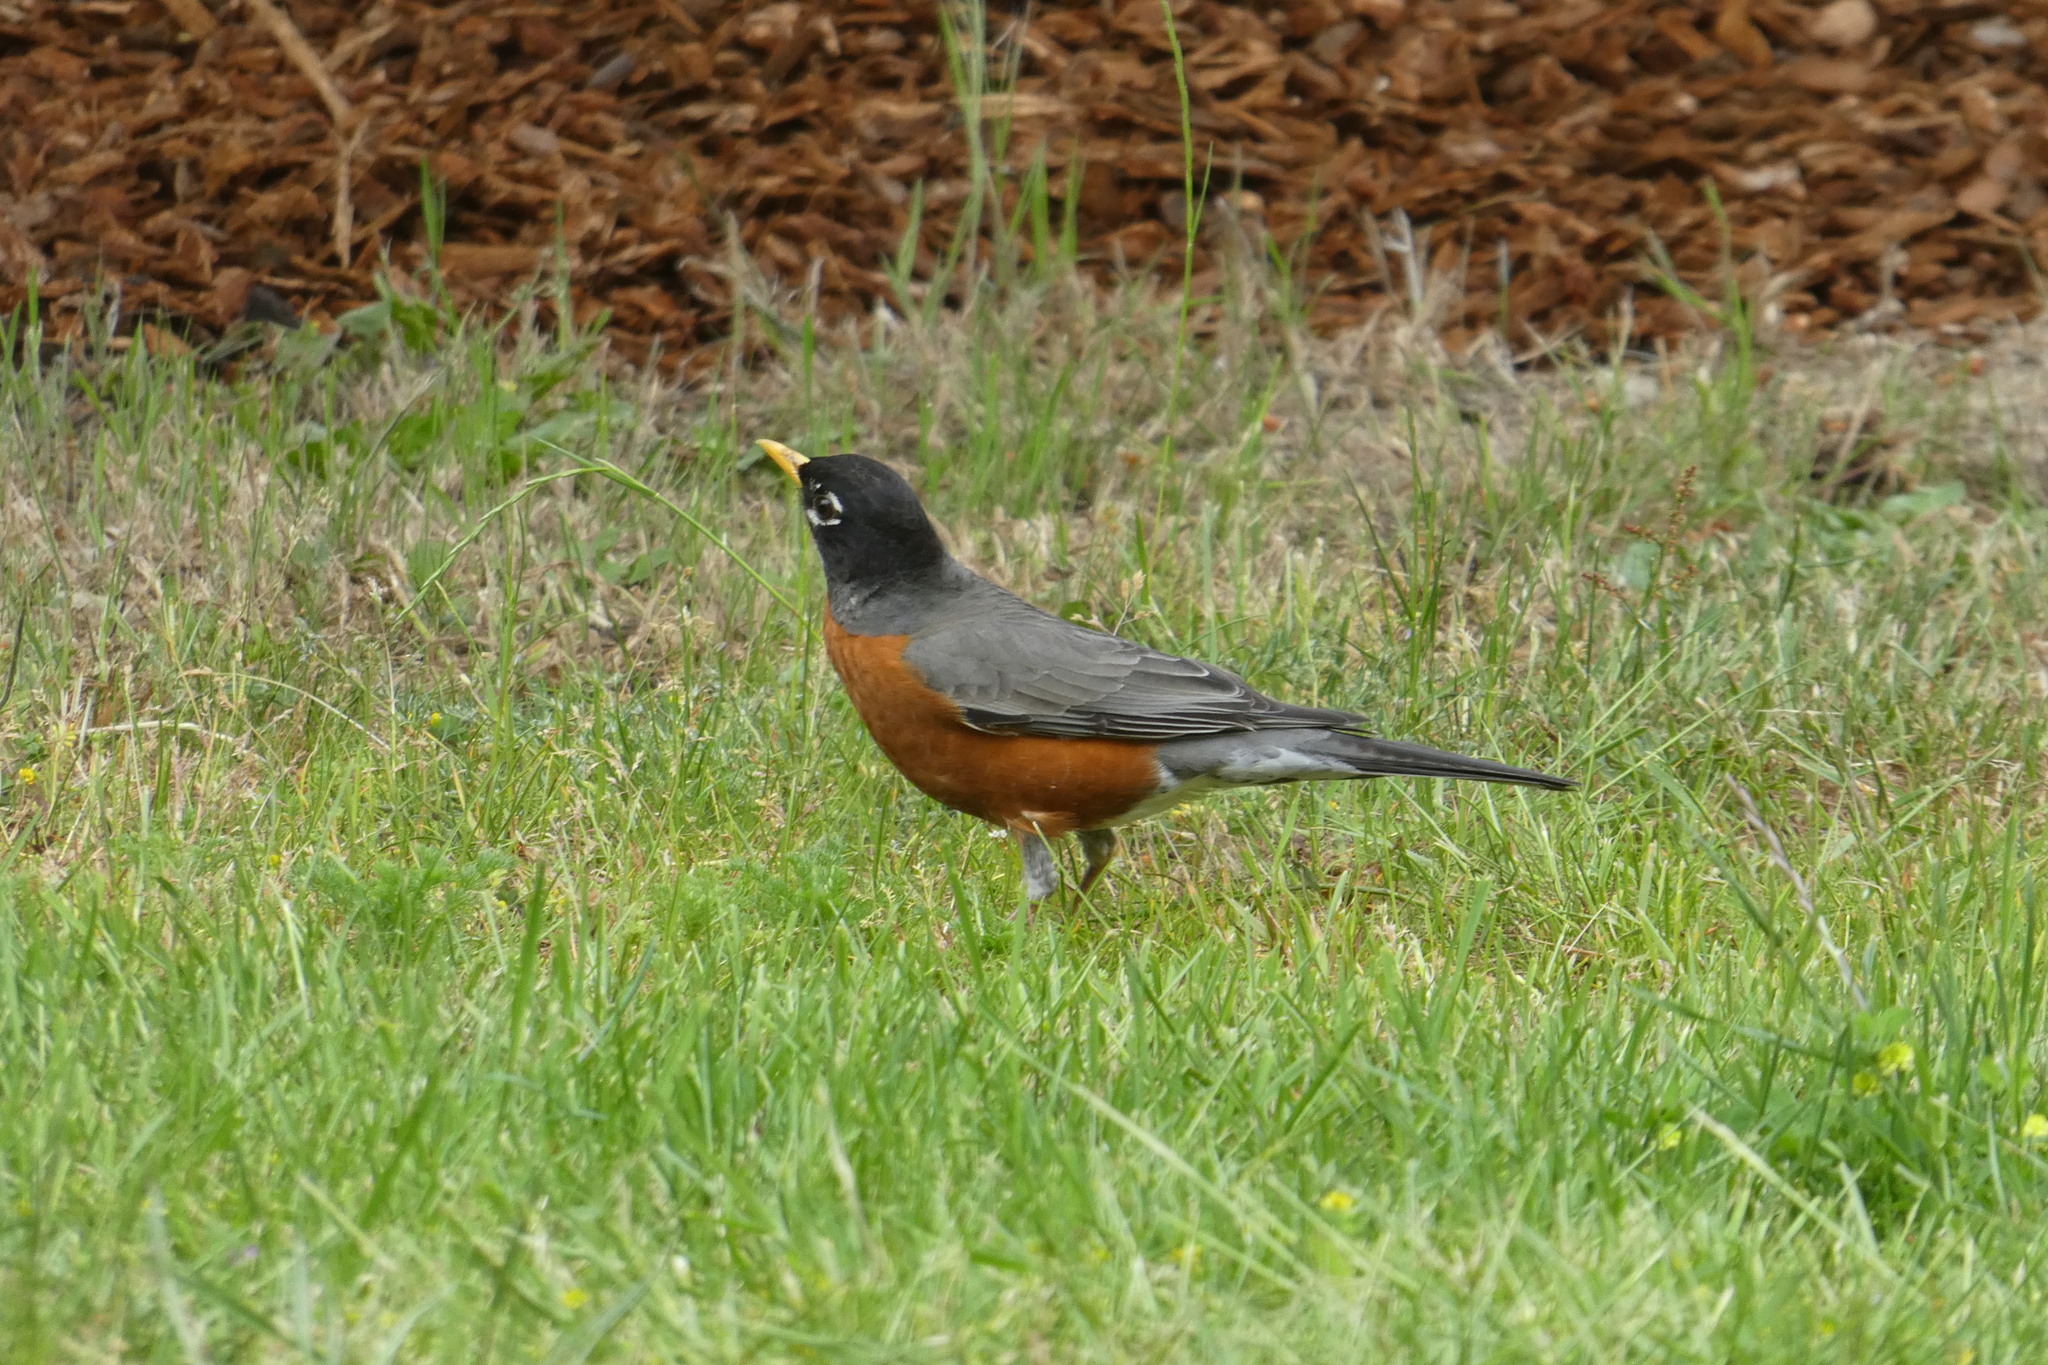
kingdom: Animalia
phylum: Chordata
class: Aves
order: Passeriformes
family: Turdidae
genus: Turdus
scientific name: Turdus migratorius
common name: American robin
